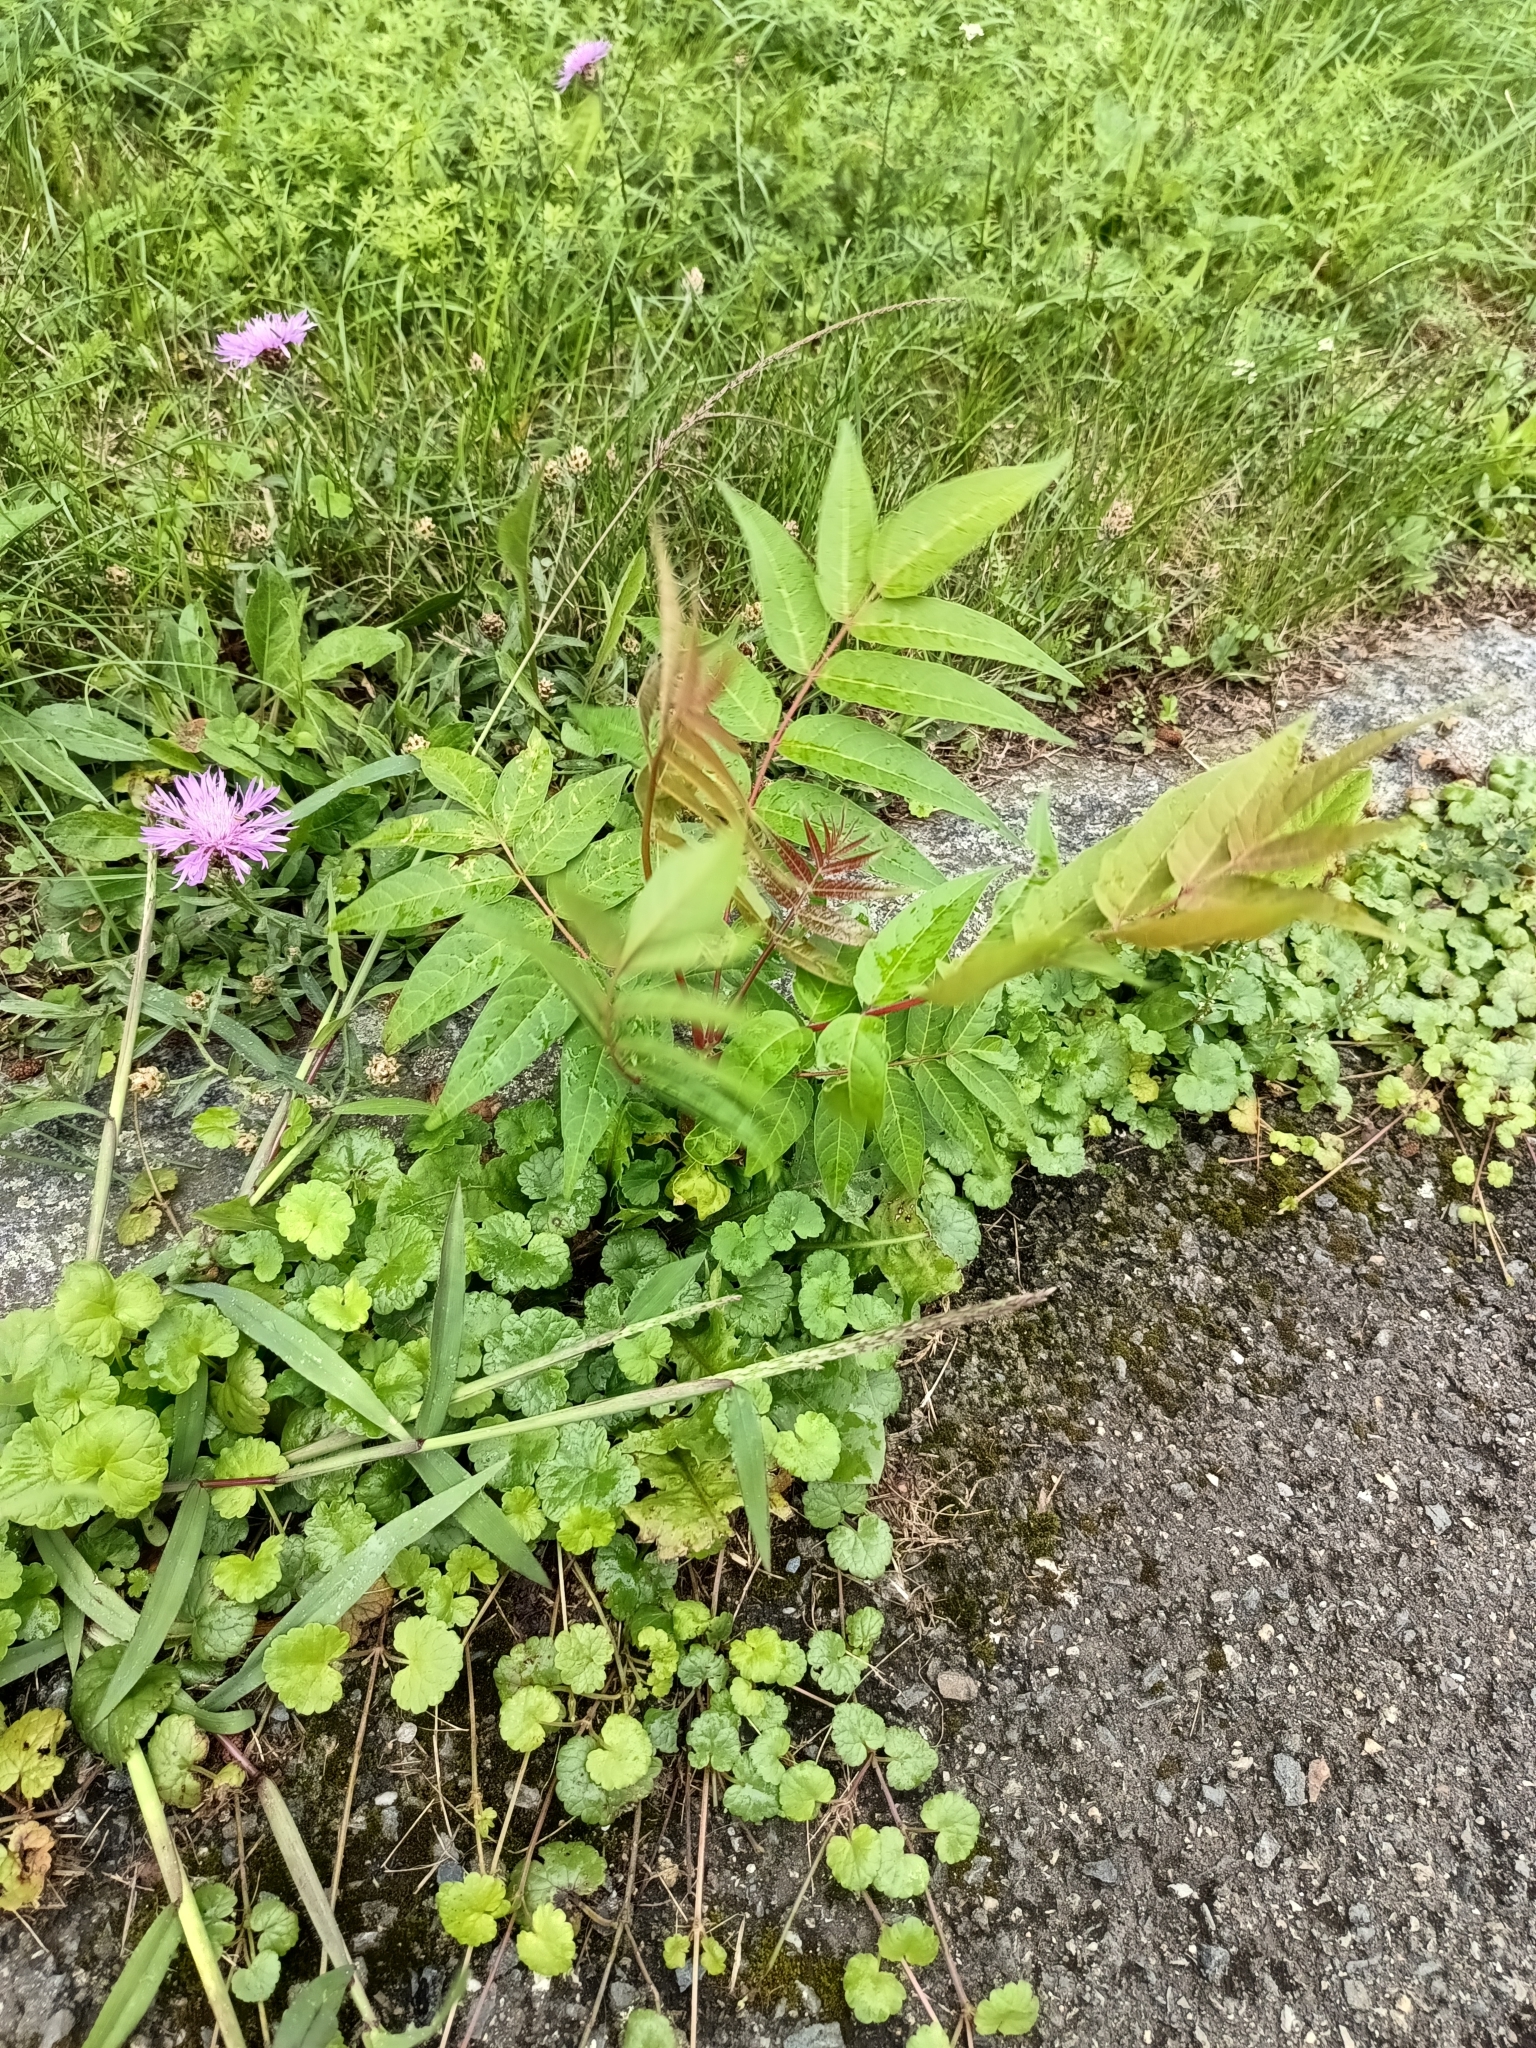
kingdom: Plantae
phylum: Tracheophyta
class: Magnoliopsida
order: Sapindales
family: Simaroubaceae
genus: Ailanthus
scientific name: Ailanthus altissima
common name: Tree-of-heaven
